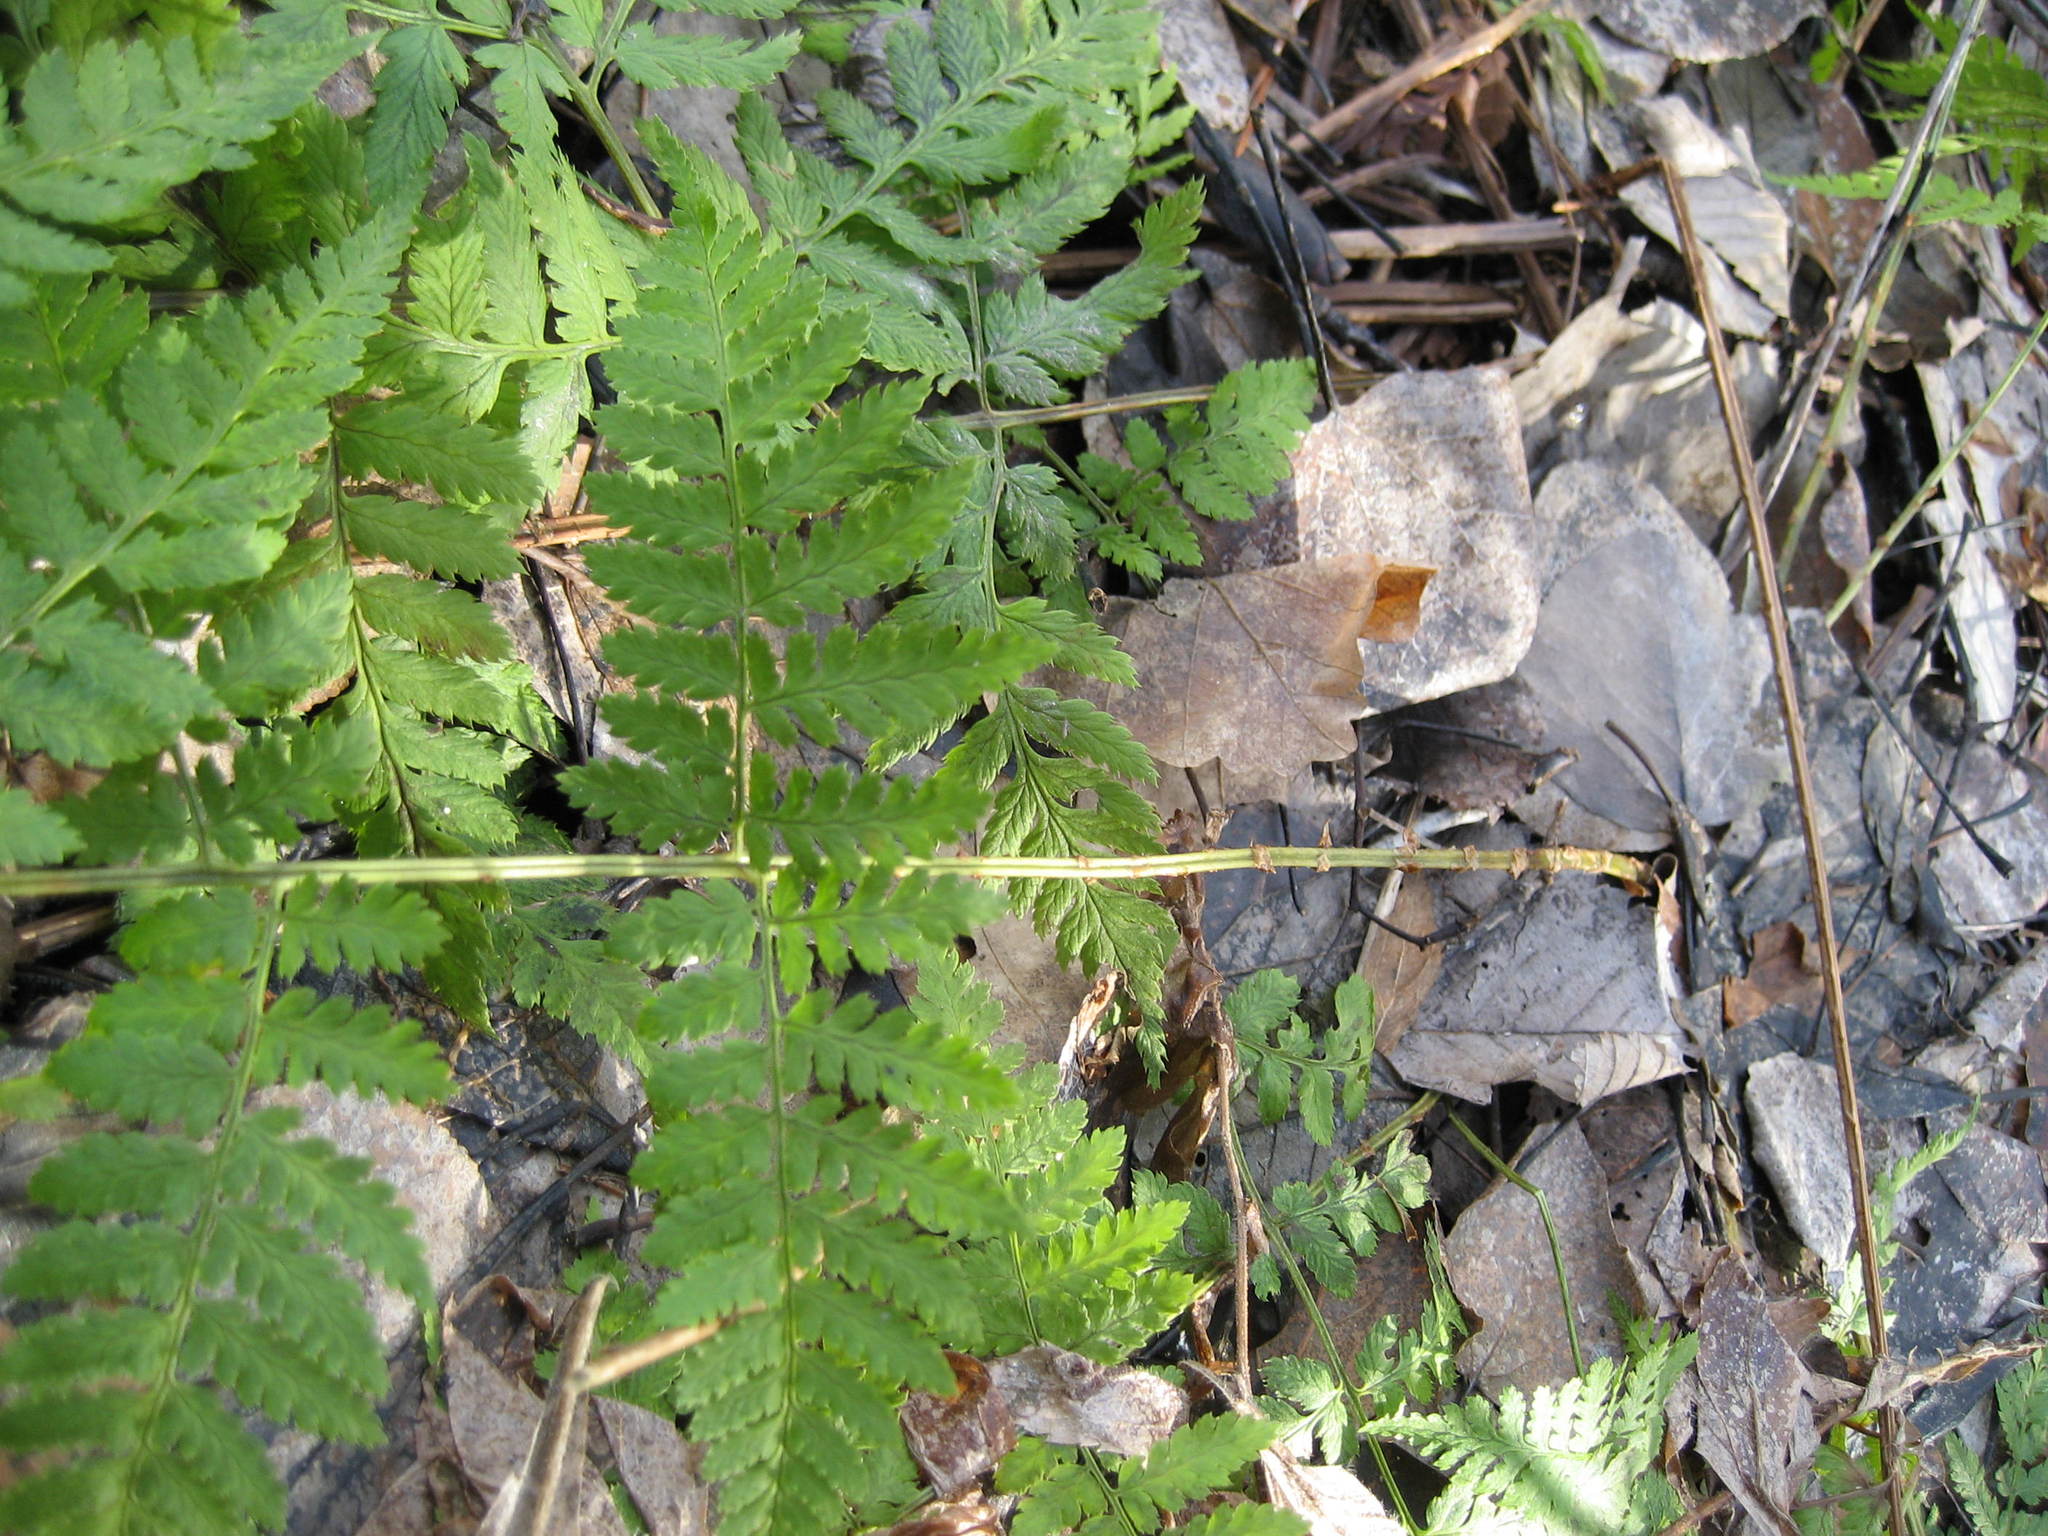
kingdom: Plantae
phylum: Tracheophyta
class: Polypodiopsida
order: Polypodiales
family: Dryopteridaceae
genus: Dryopteris
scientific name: Dryopteris intermedia
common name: Evergreen wood fern
